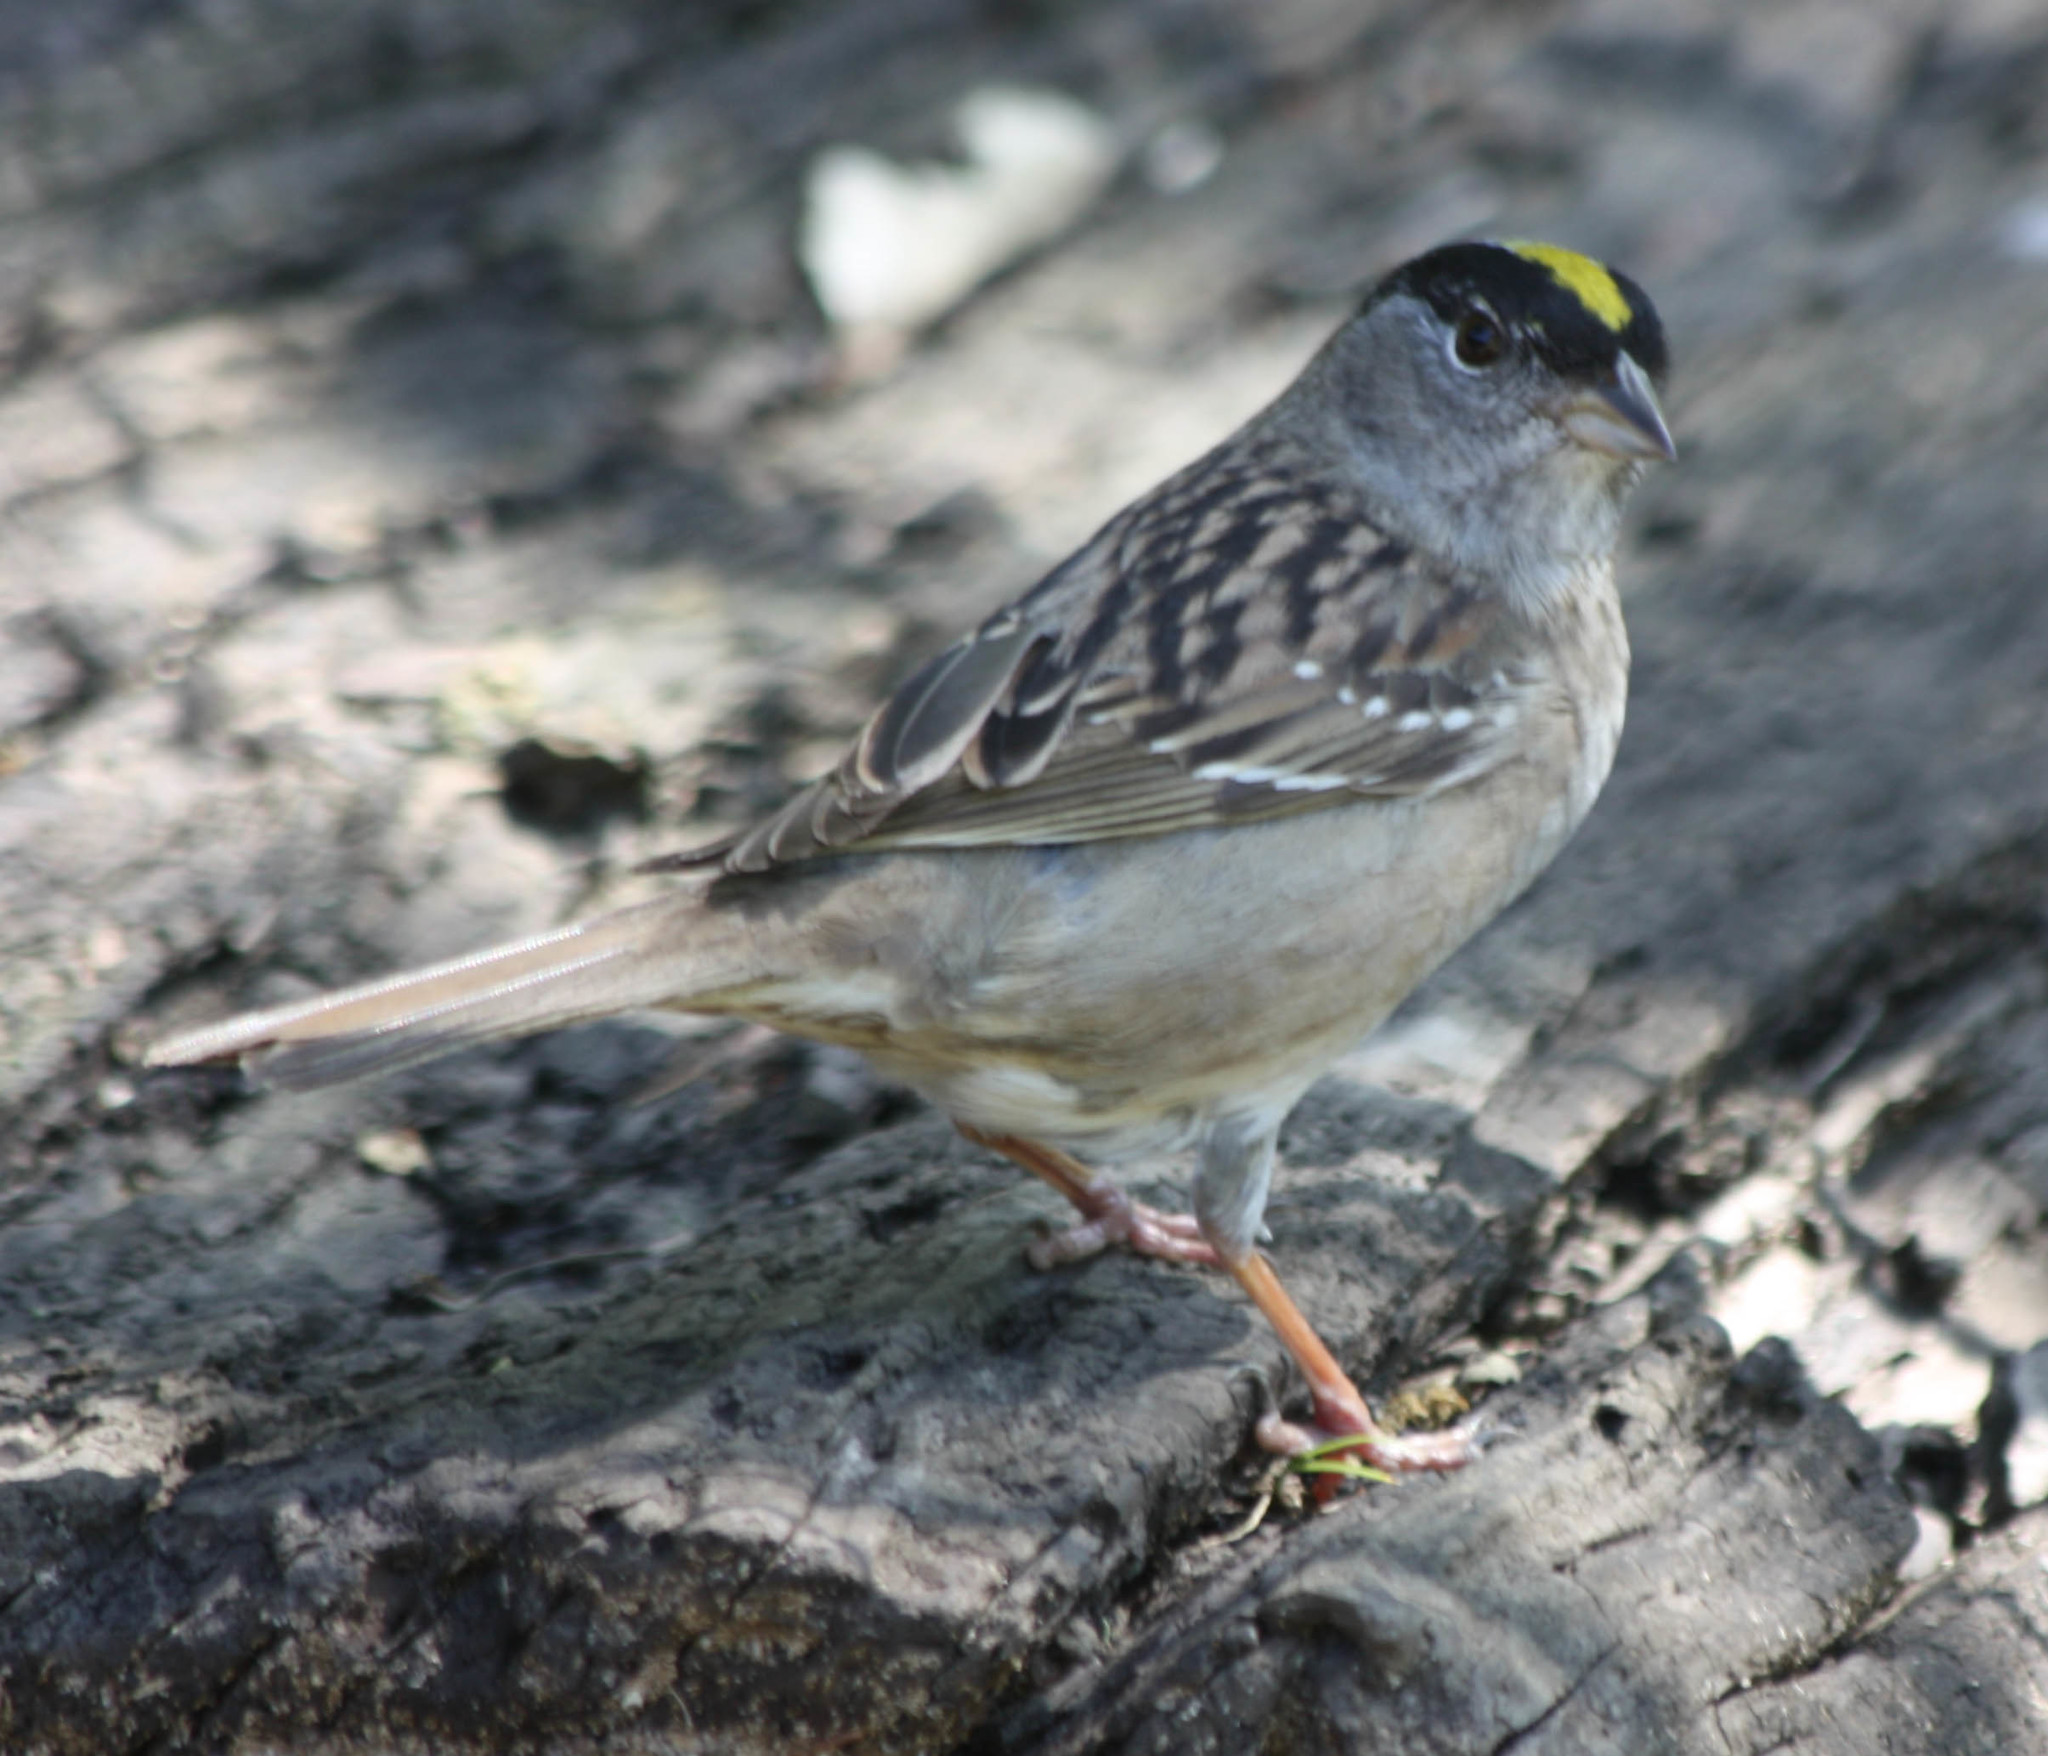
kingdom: Animalia
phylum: Chordata
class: Aves
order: Passeriformes
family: Passerellidae
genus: Zonotrichia
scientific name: Zonotrichia atricapilla
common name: Golden-crowned sparrow
